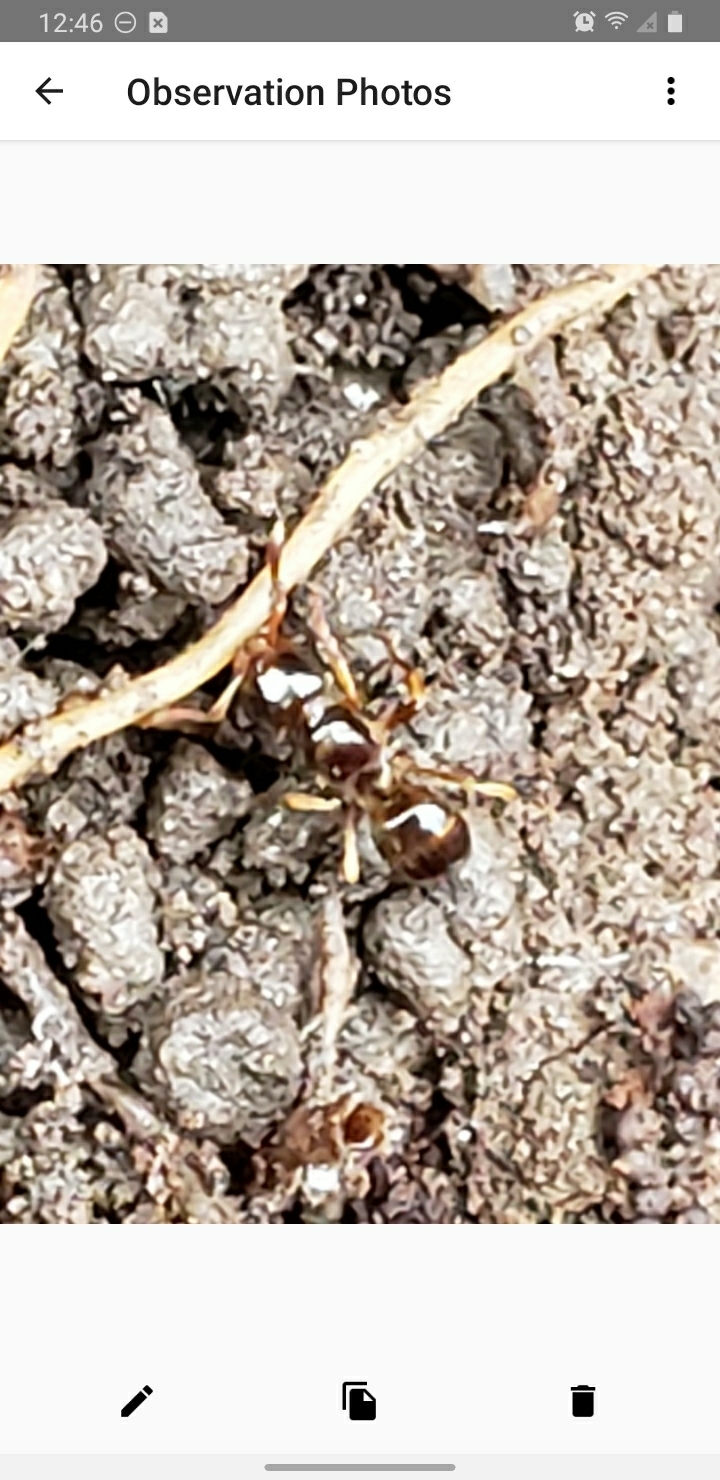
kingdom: Animalia
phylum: Arthropoda
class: Insecta
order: Hymenoptera
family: Formicidae
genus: Lasius
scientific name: Lasius claviger
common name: Common citronella ant
